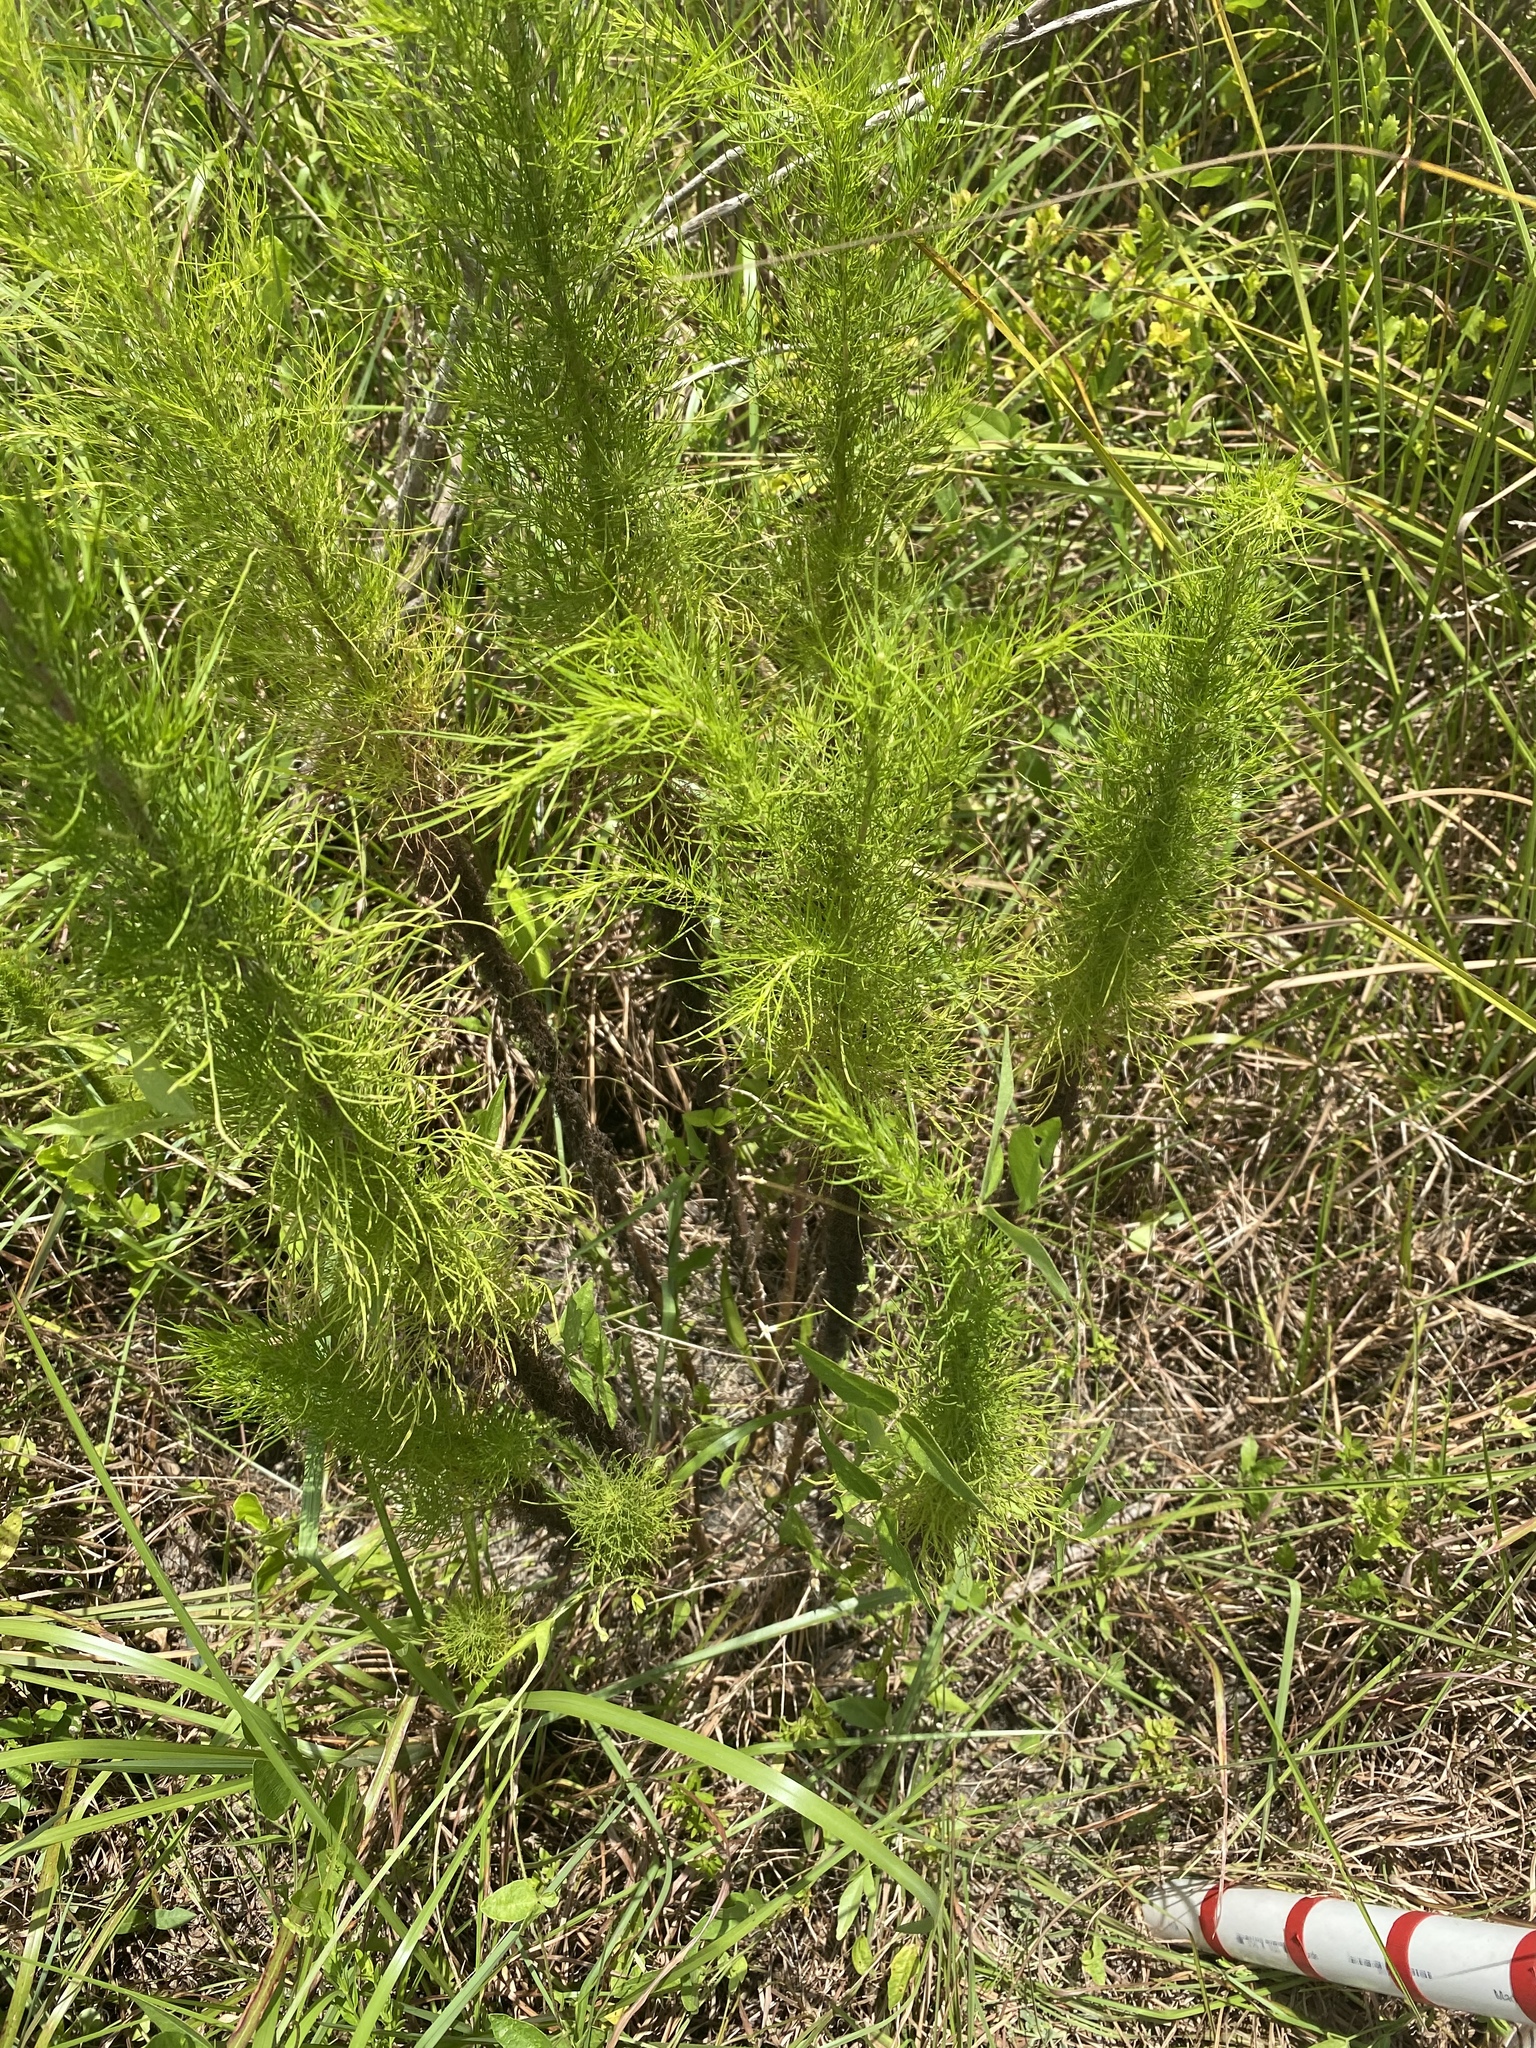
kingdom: Plantae
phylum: Tracheophyta
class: Magnoliopsida
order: Asterales
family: Asteraceae
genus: Eupatorium
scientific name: Eupatorium capillifolium
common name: Dog-fennel
